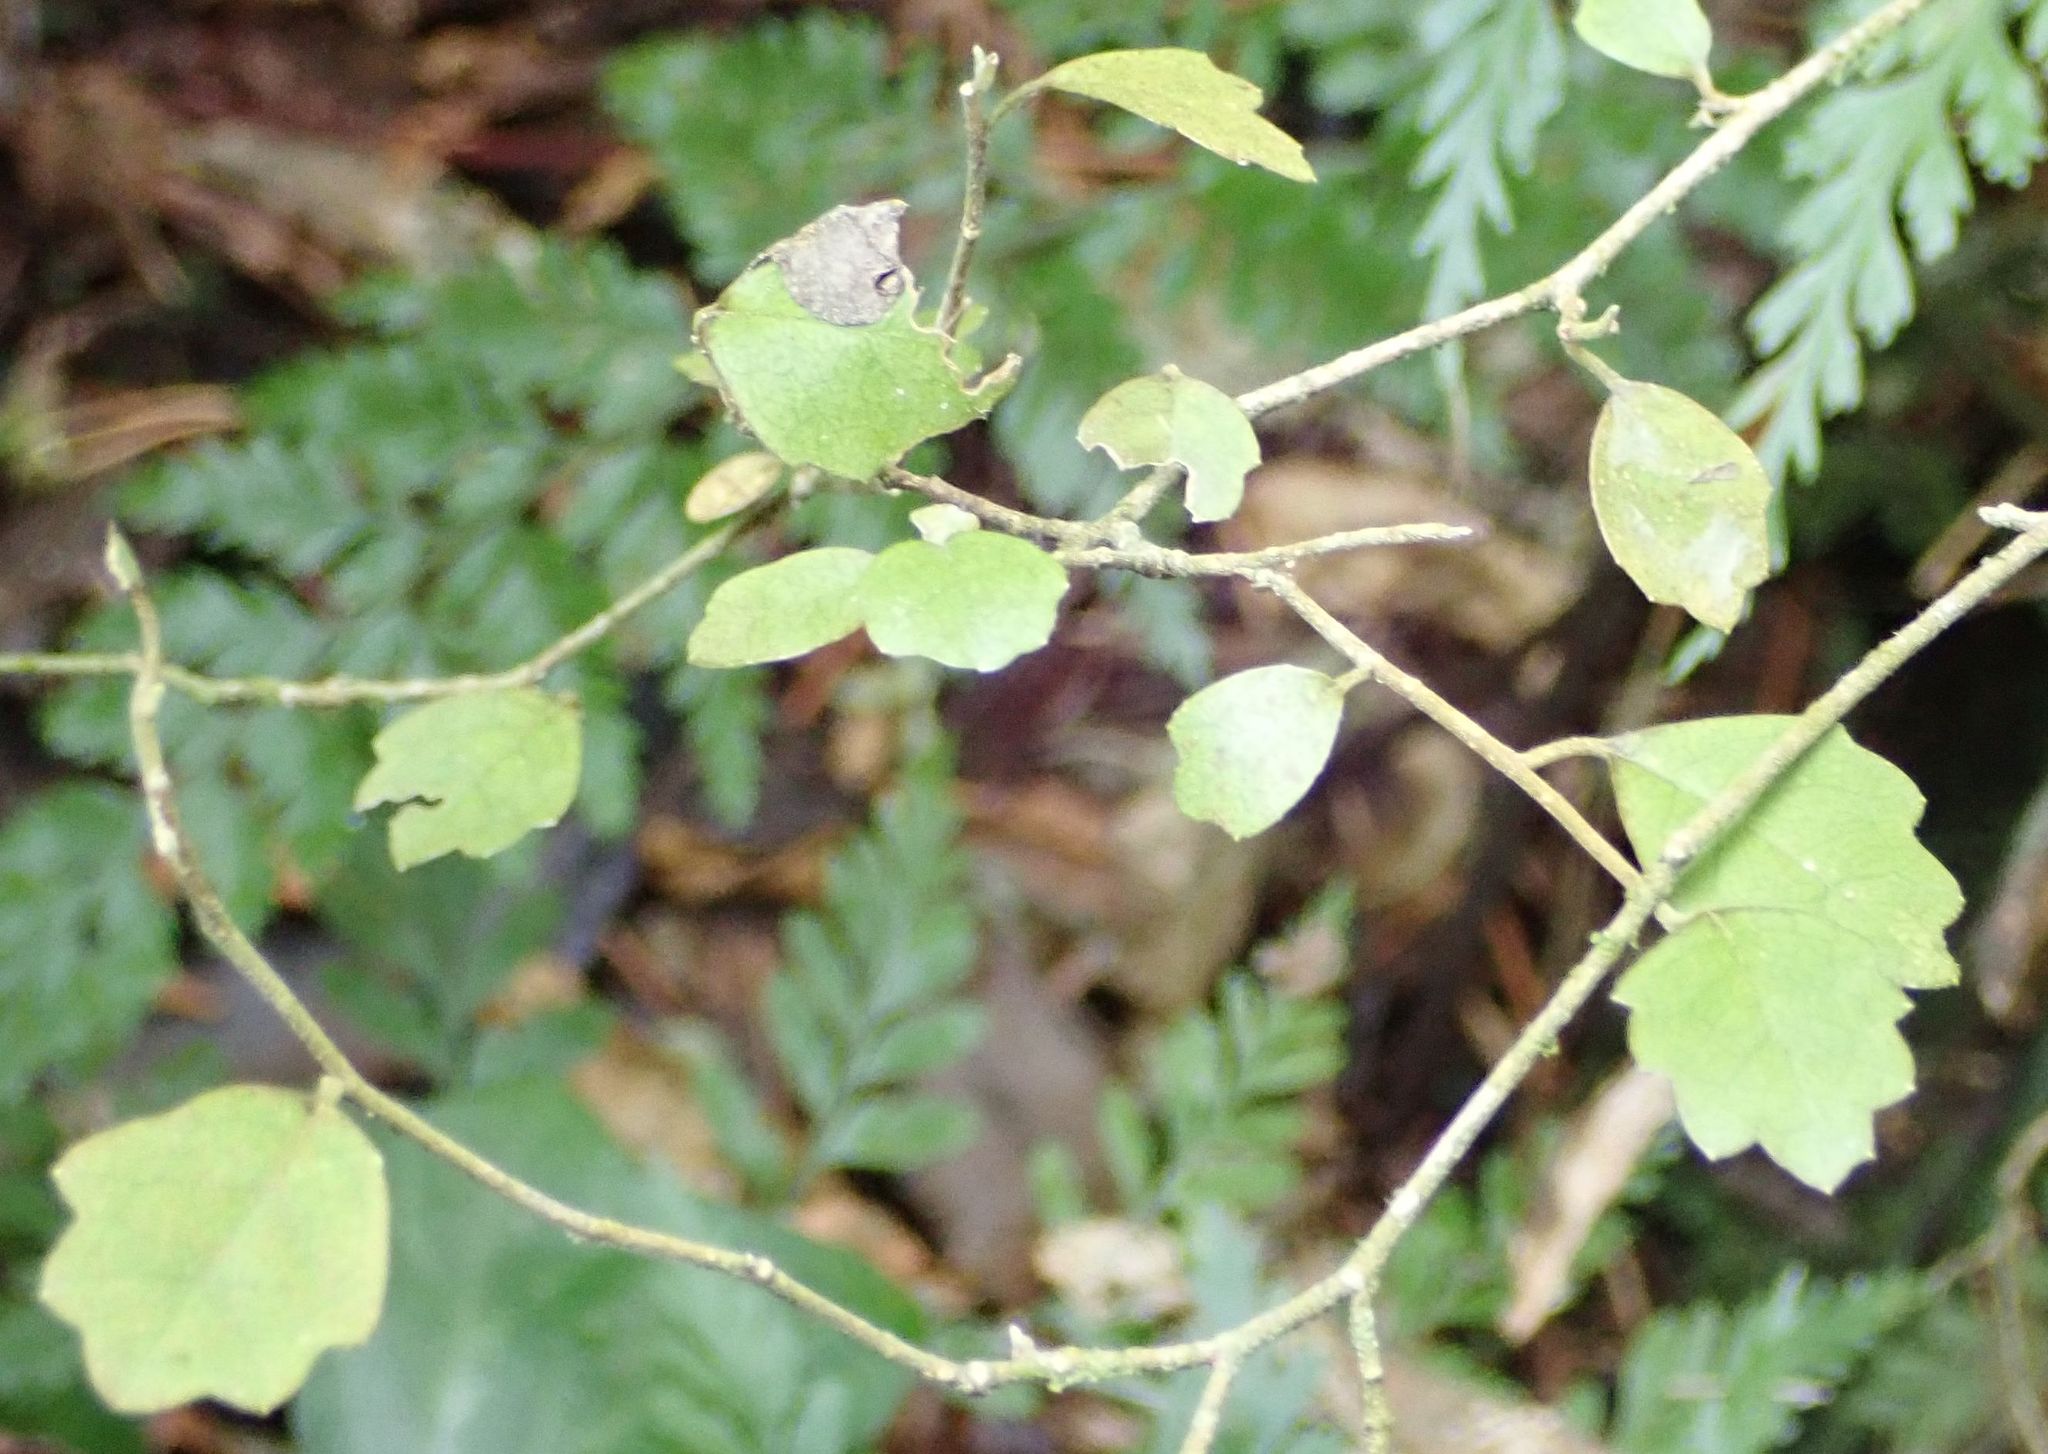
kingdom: Plantae
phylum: Tracheophyta
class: Magnoliopsida
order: Apiales
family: Pennantiaceae
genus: Pennantia
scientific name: Pennantia corymbosa
